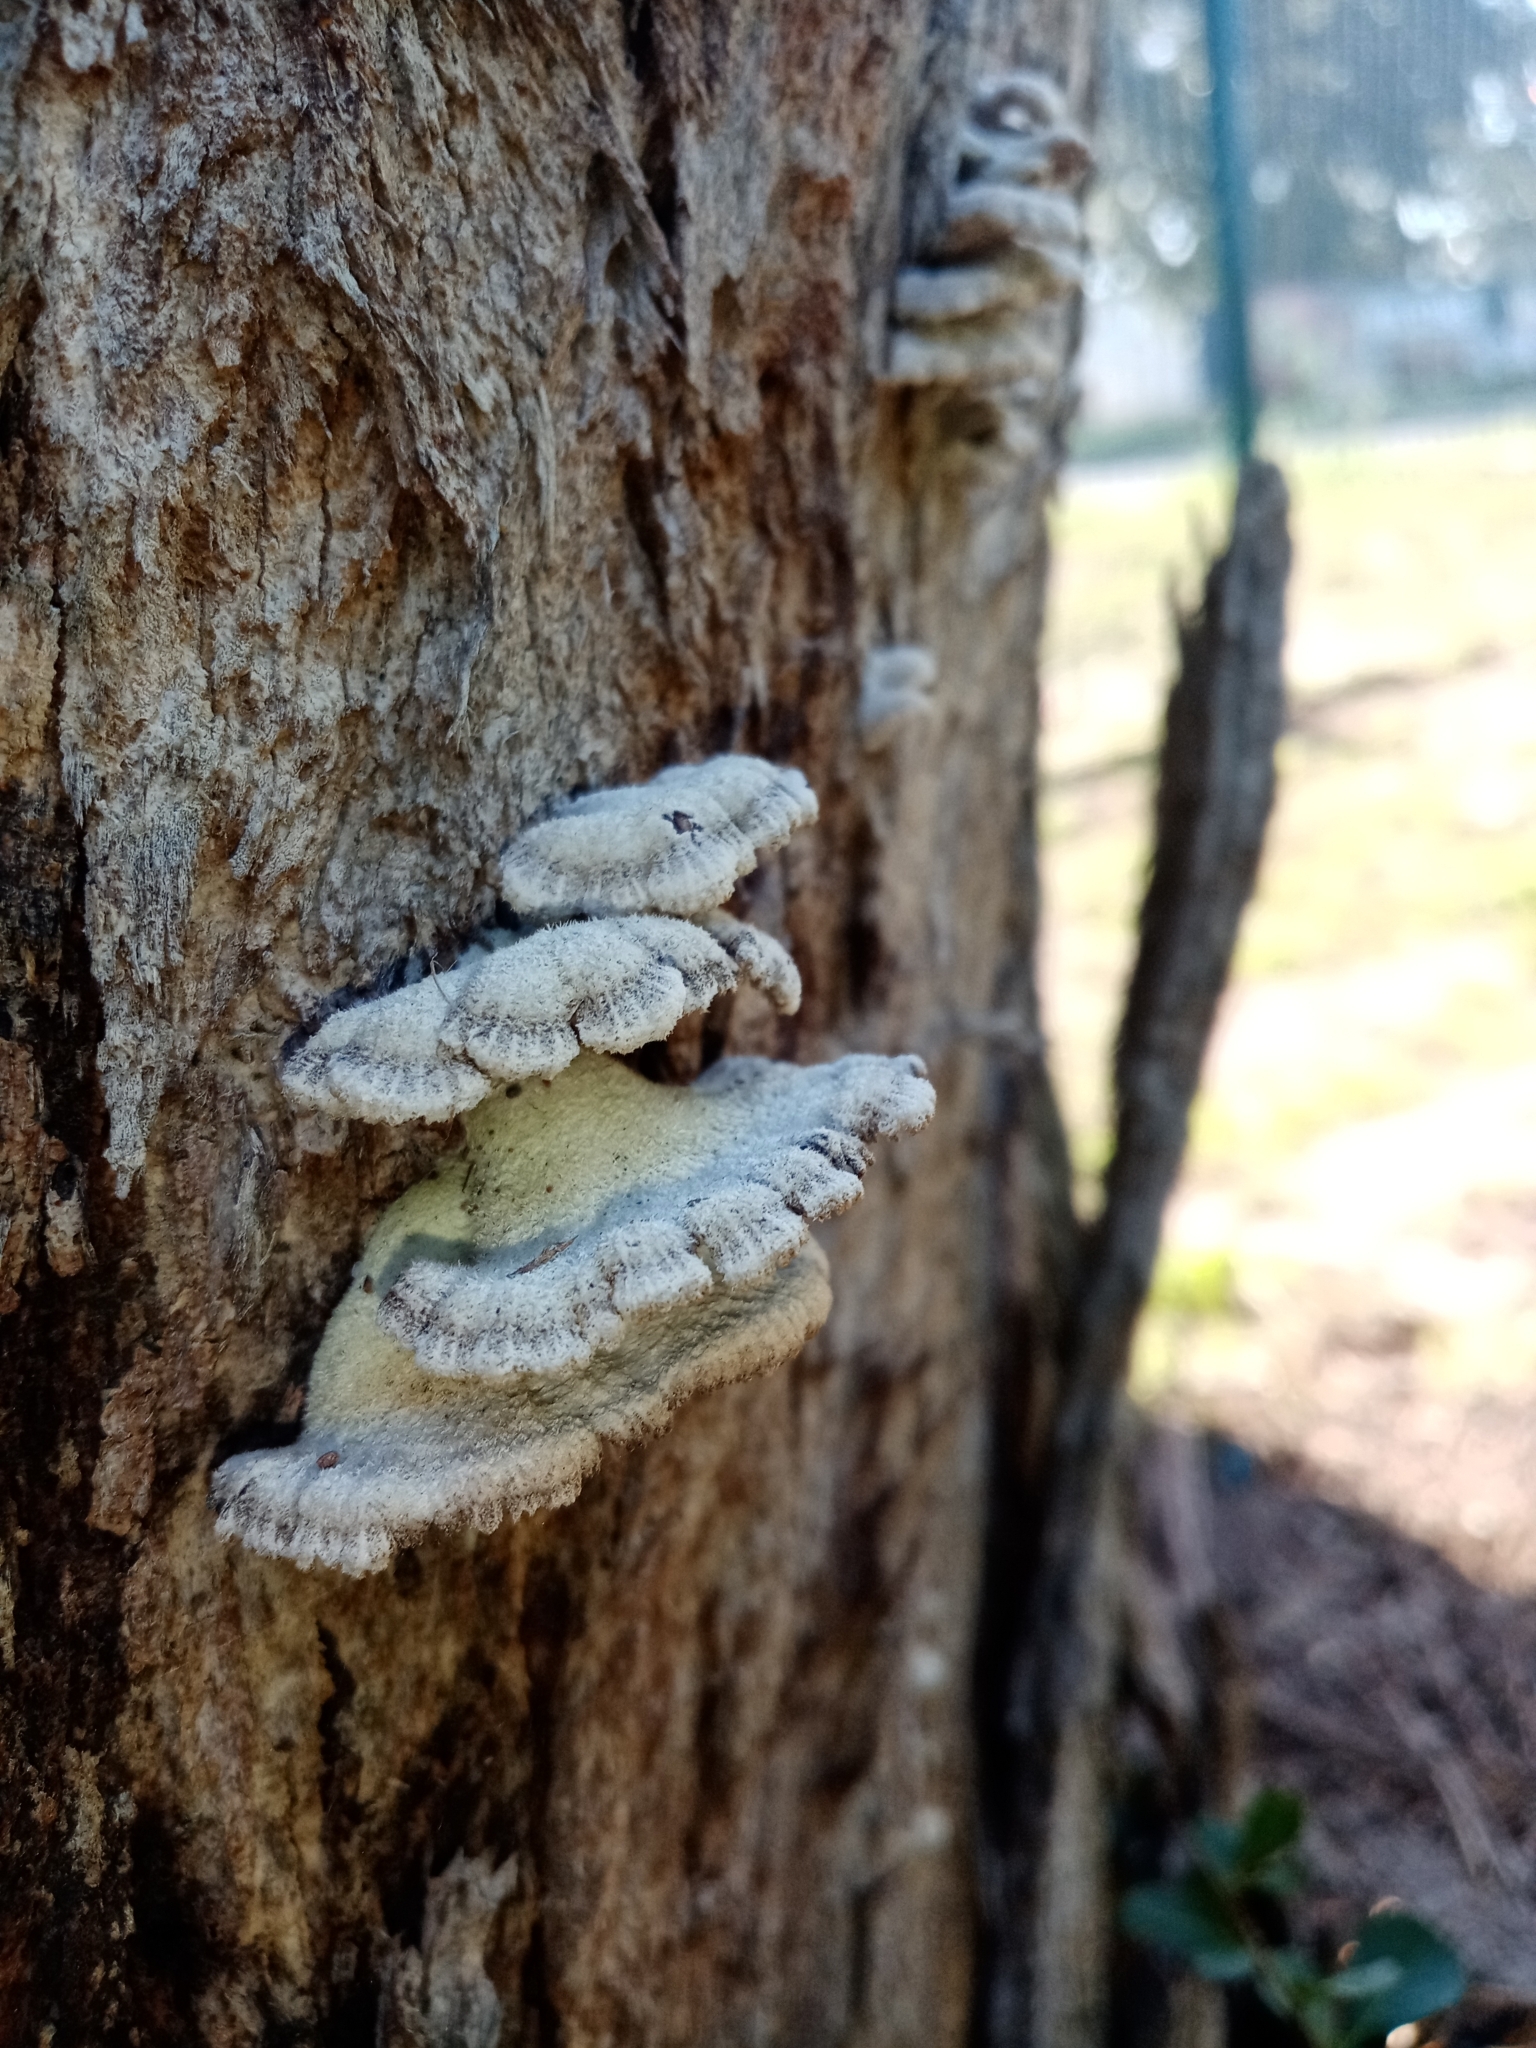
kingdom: Fungi
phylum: Basidiomycota
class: Agaricomycetes
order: Agaricales
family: Schizophyllaceae
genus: Schizophyllum
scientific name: Schizophyllum commune
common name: Common porecrust
